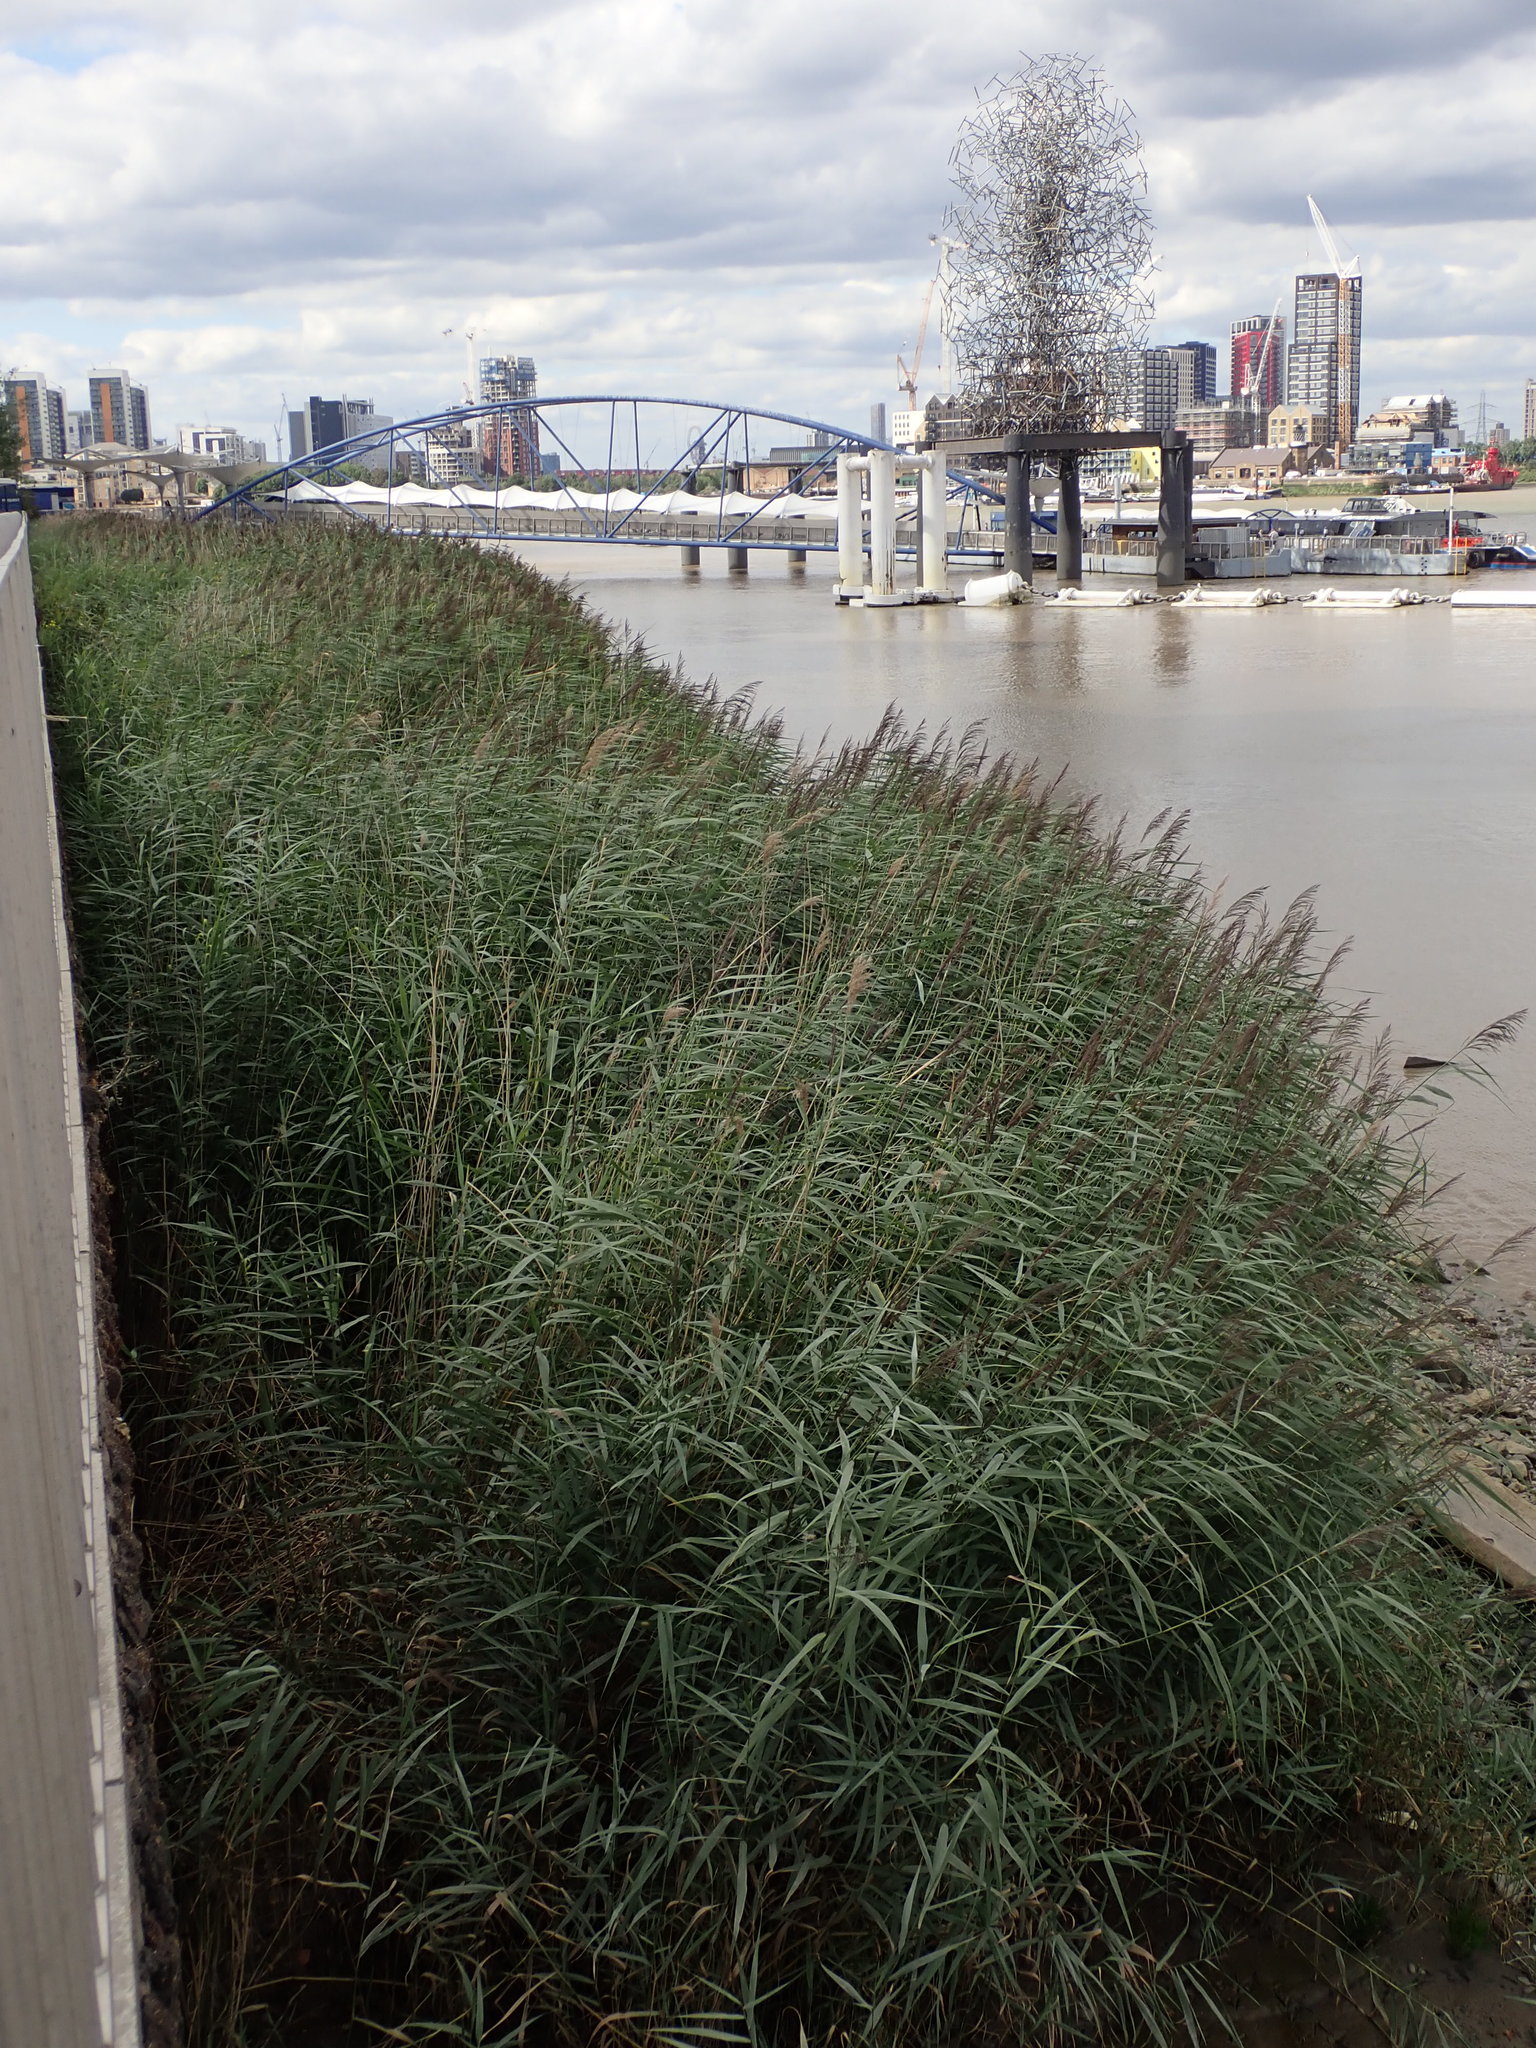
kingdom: Plantae
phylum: Tracheophyta
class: Liliopsida
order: Poales
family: Poaceae
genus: Phragmites
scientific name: Phragmites australis
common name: Common reed
